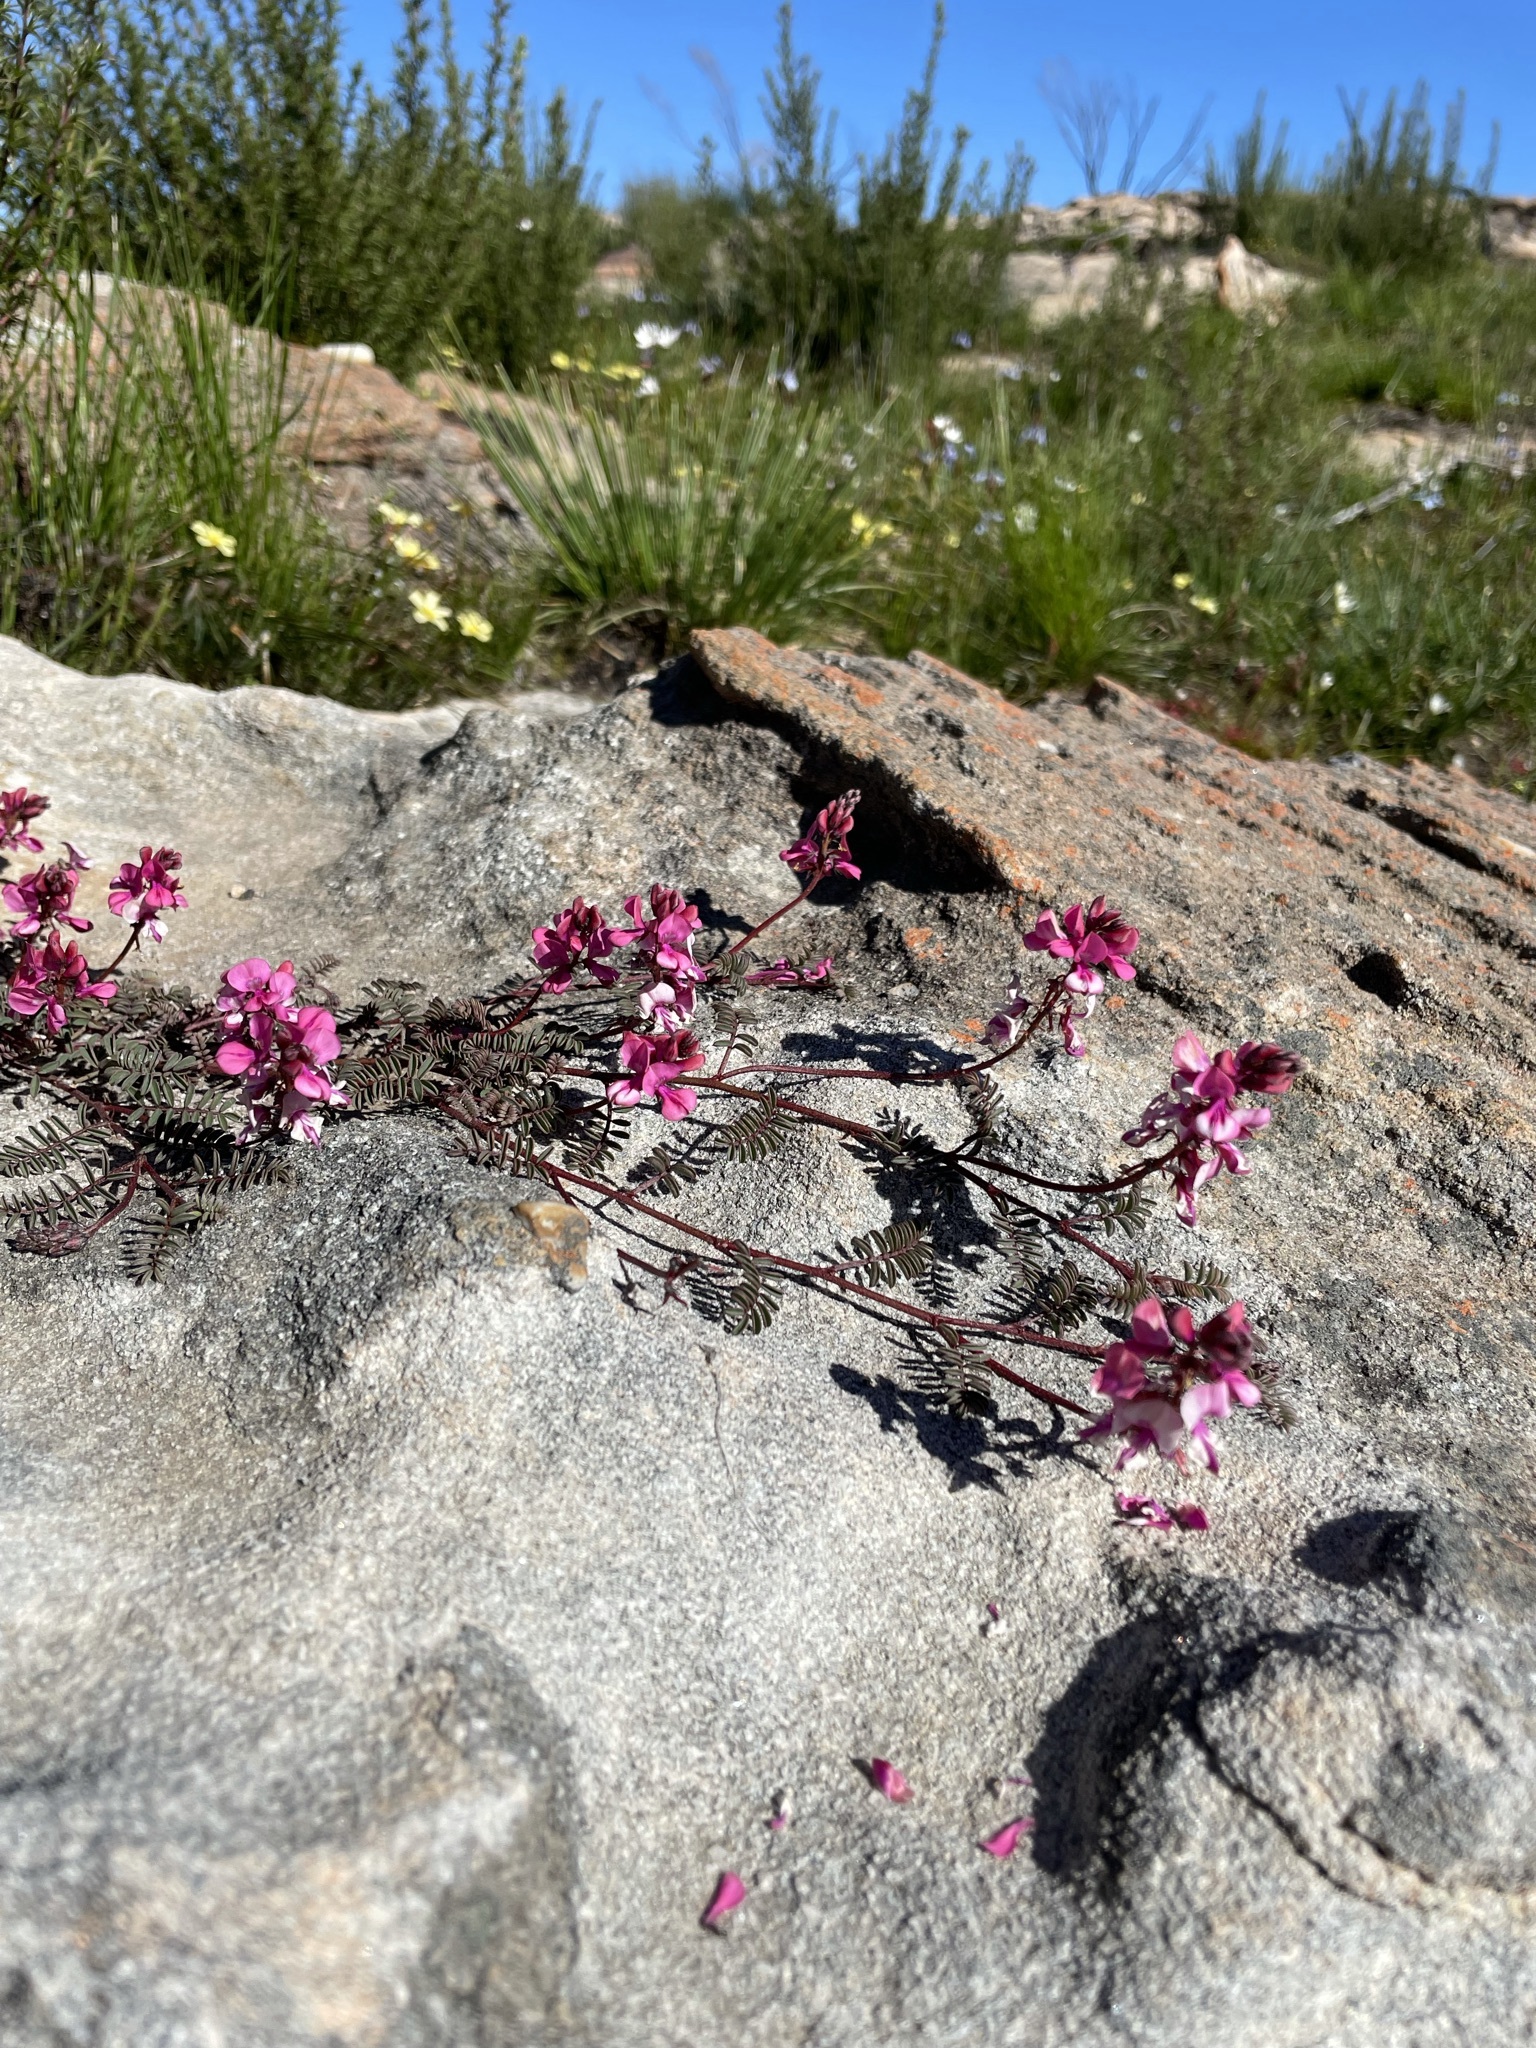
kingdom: Plantae
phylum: Tracheophyta
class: Magnoliopsida
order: Fabales
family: Fabaceae
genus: Indigofera
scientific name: Indigofera
